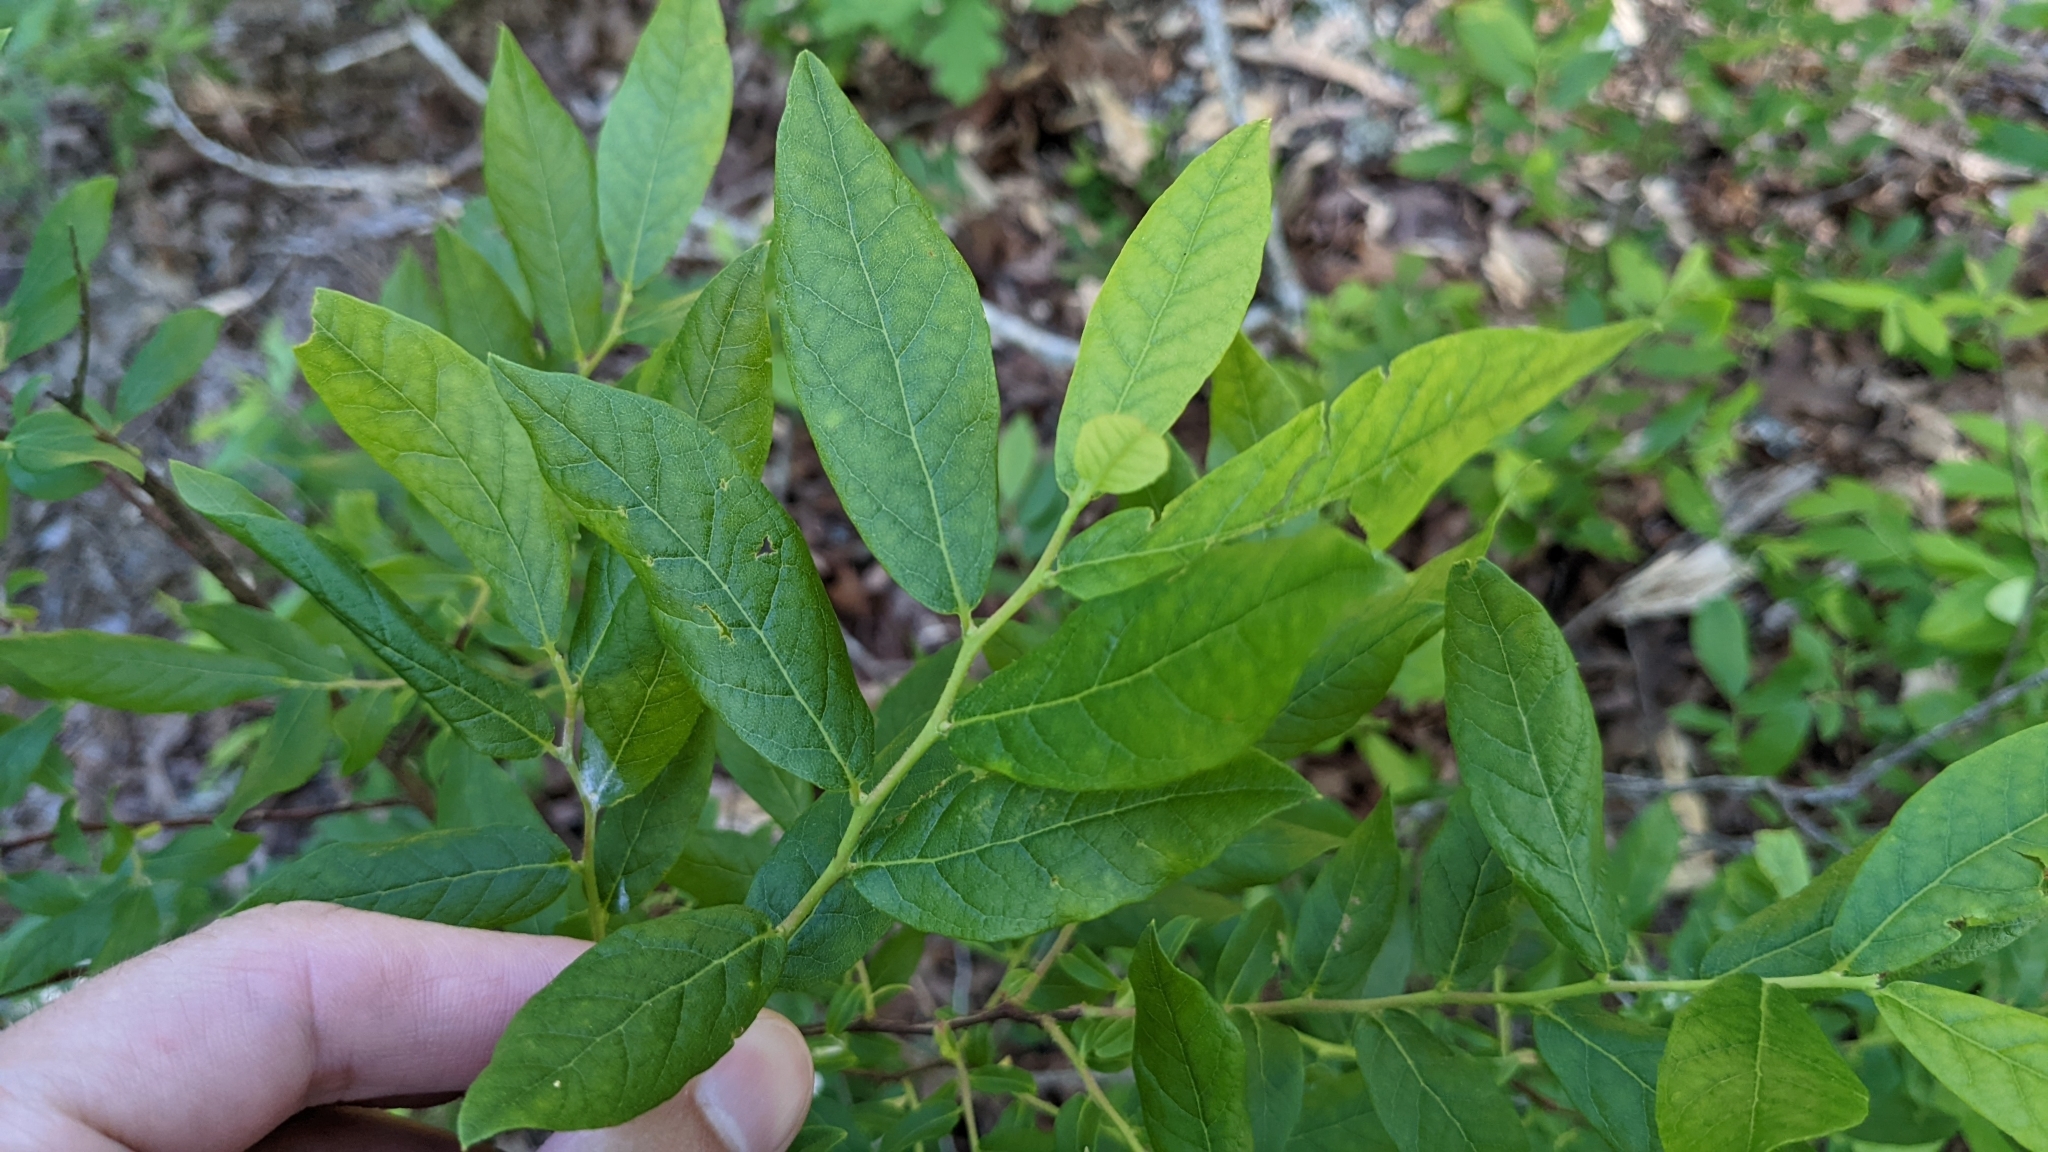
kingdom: Plantae
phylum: Tracheophyta
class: Magnoliopsida
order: Ericales
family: Ericaceae
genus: Vaccinium
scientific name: Vaccinium stamineum
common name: Deerberry
